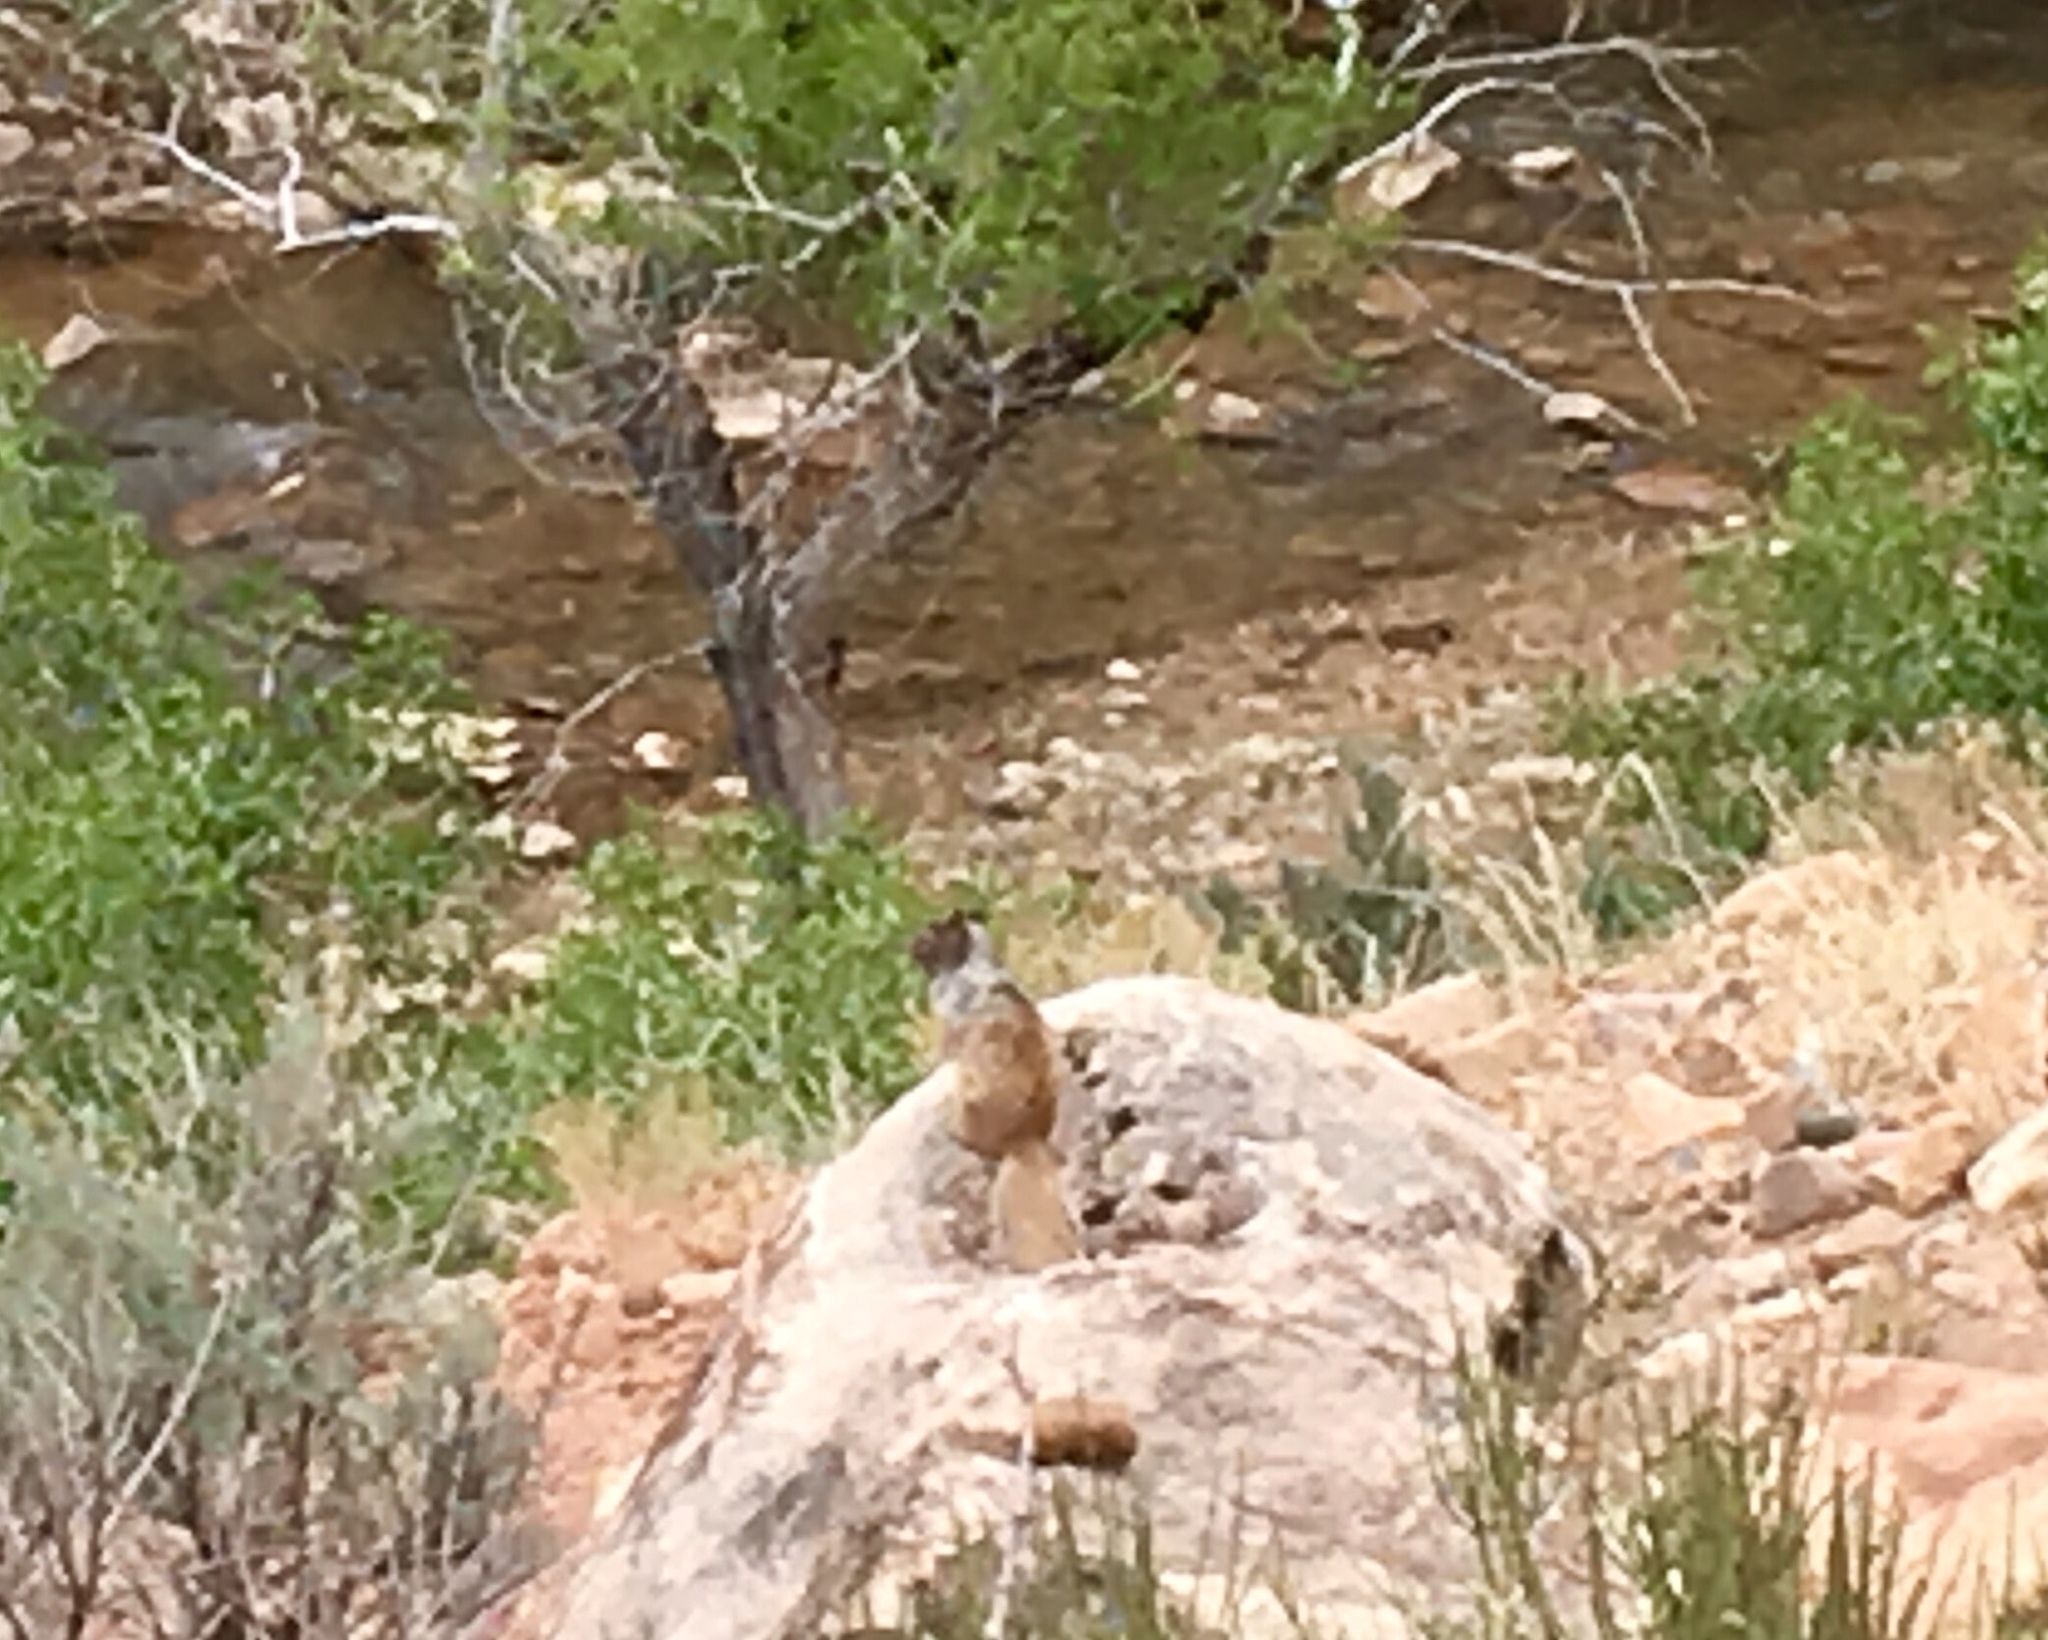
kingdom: Animalia
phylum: Chordata
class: Mammalia
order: Rodentia
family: Sciuridae
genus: Otospermophilus
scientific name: Otospermophilus variegatus
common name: Rock squirrel
